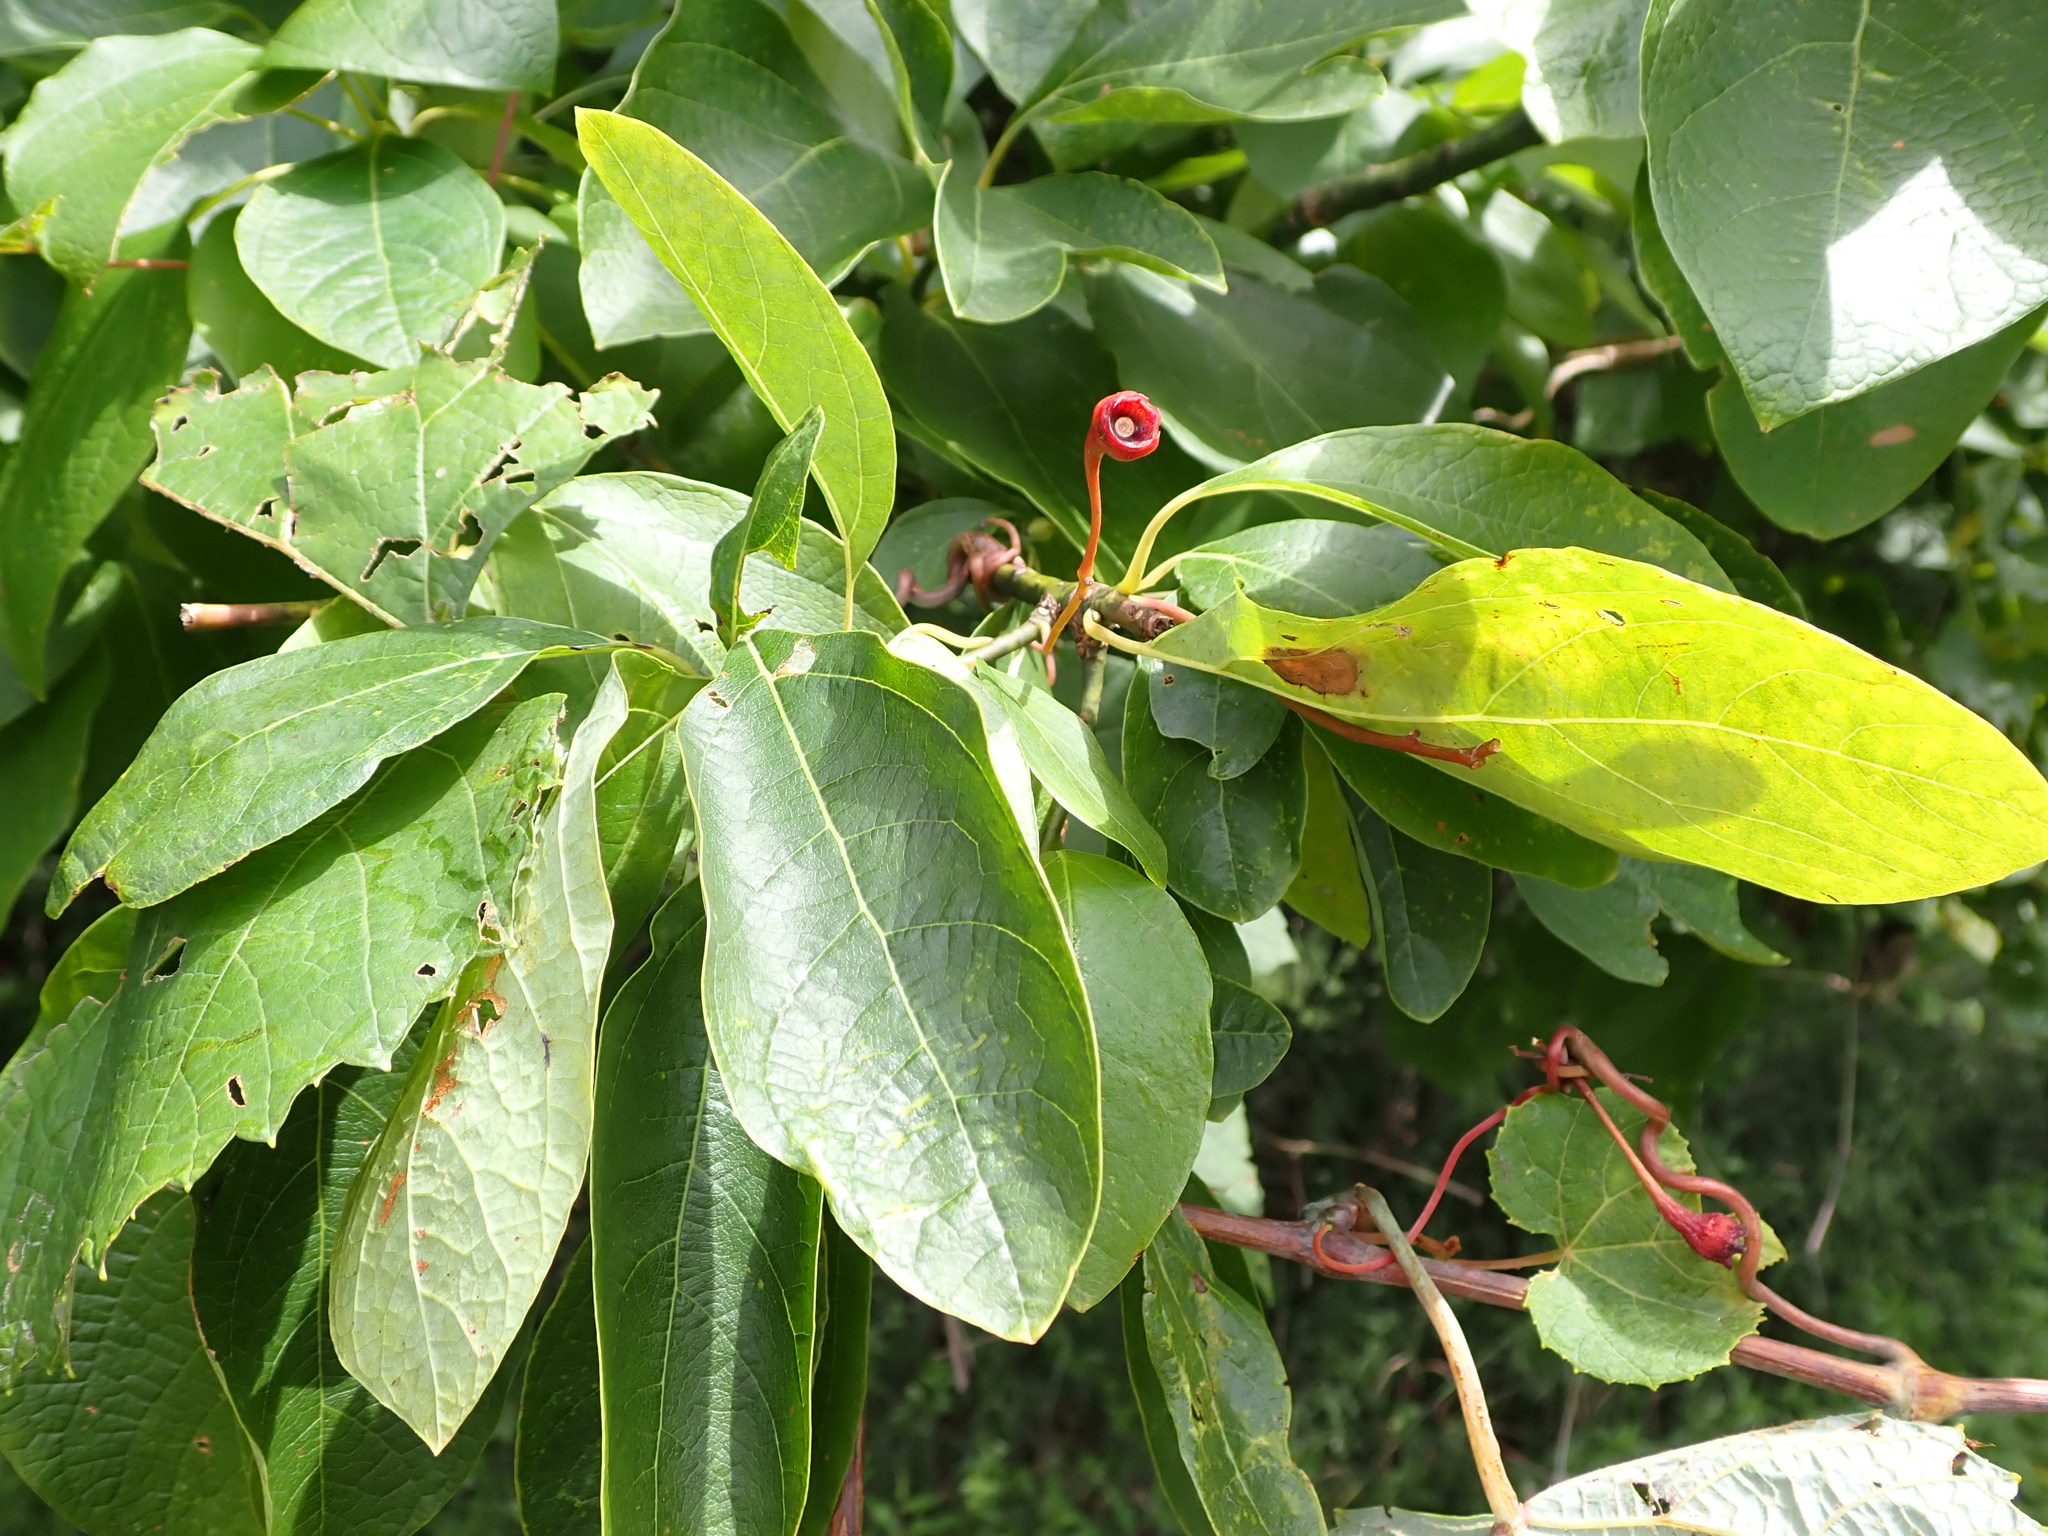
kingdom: Plantae
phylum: Tracheophyta
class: Magnoliopsida
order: Laurales
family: Lauraceae
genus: Sassafras
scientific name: Sassafras albidum
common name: Sassafras
